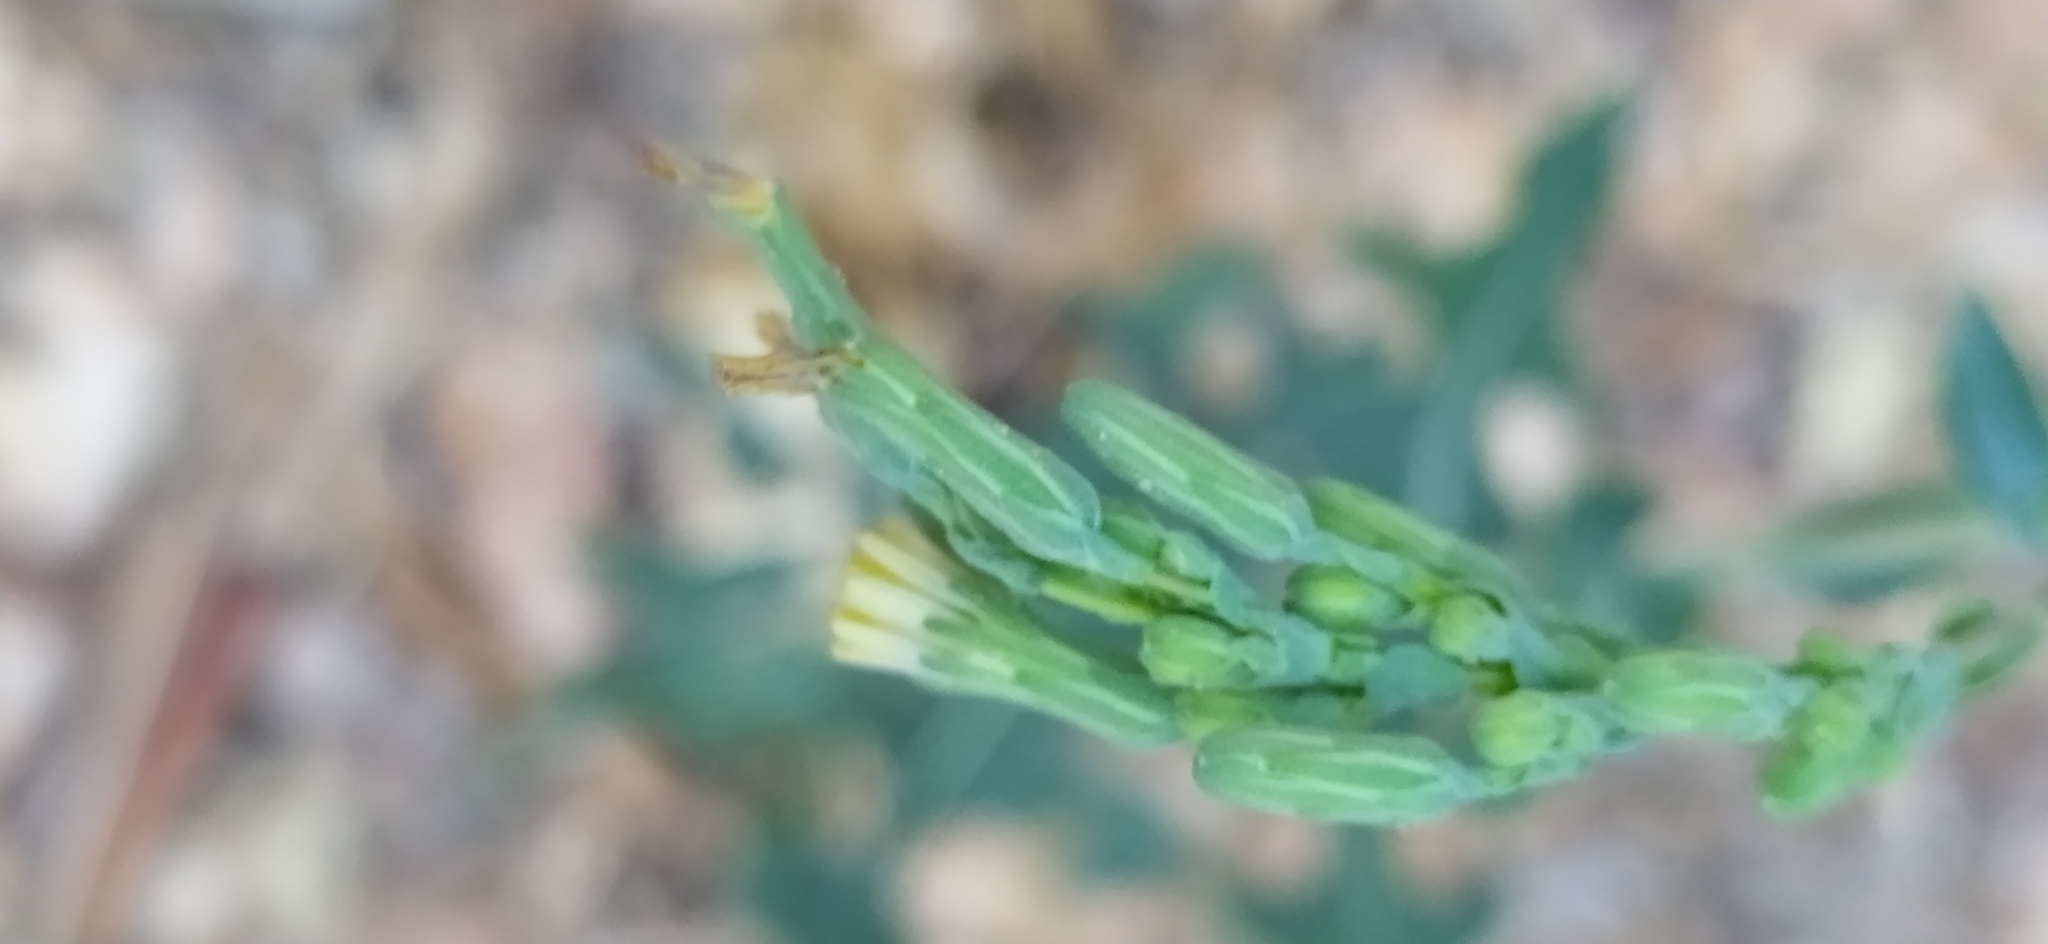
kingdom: Plantae
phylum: Tracheophyta
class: Magnoliopsida
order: Asterales
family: Asteraceae
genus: Lactuca
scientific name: Lactuca serriola
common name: Prickly lettuce
